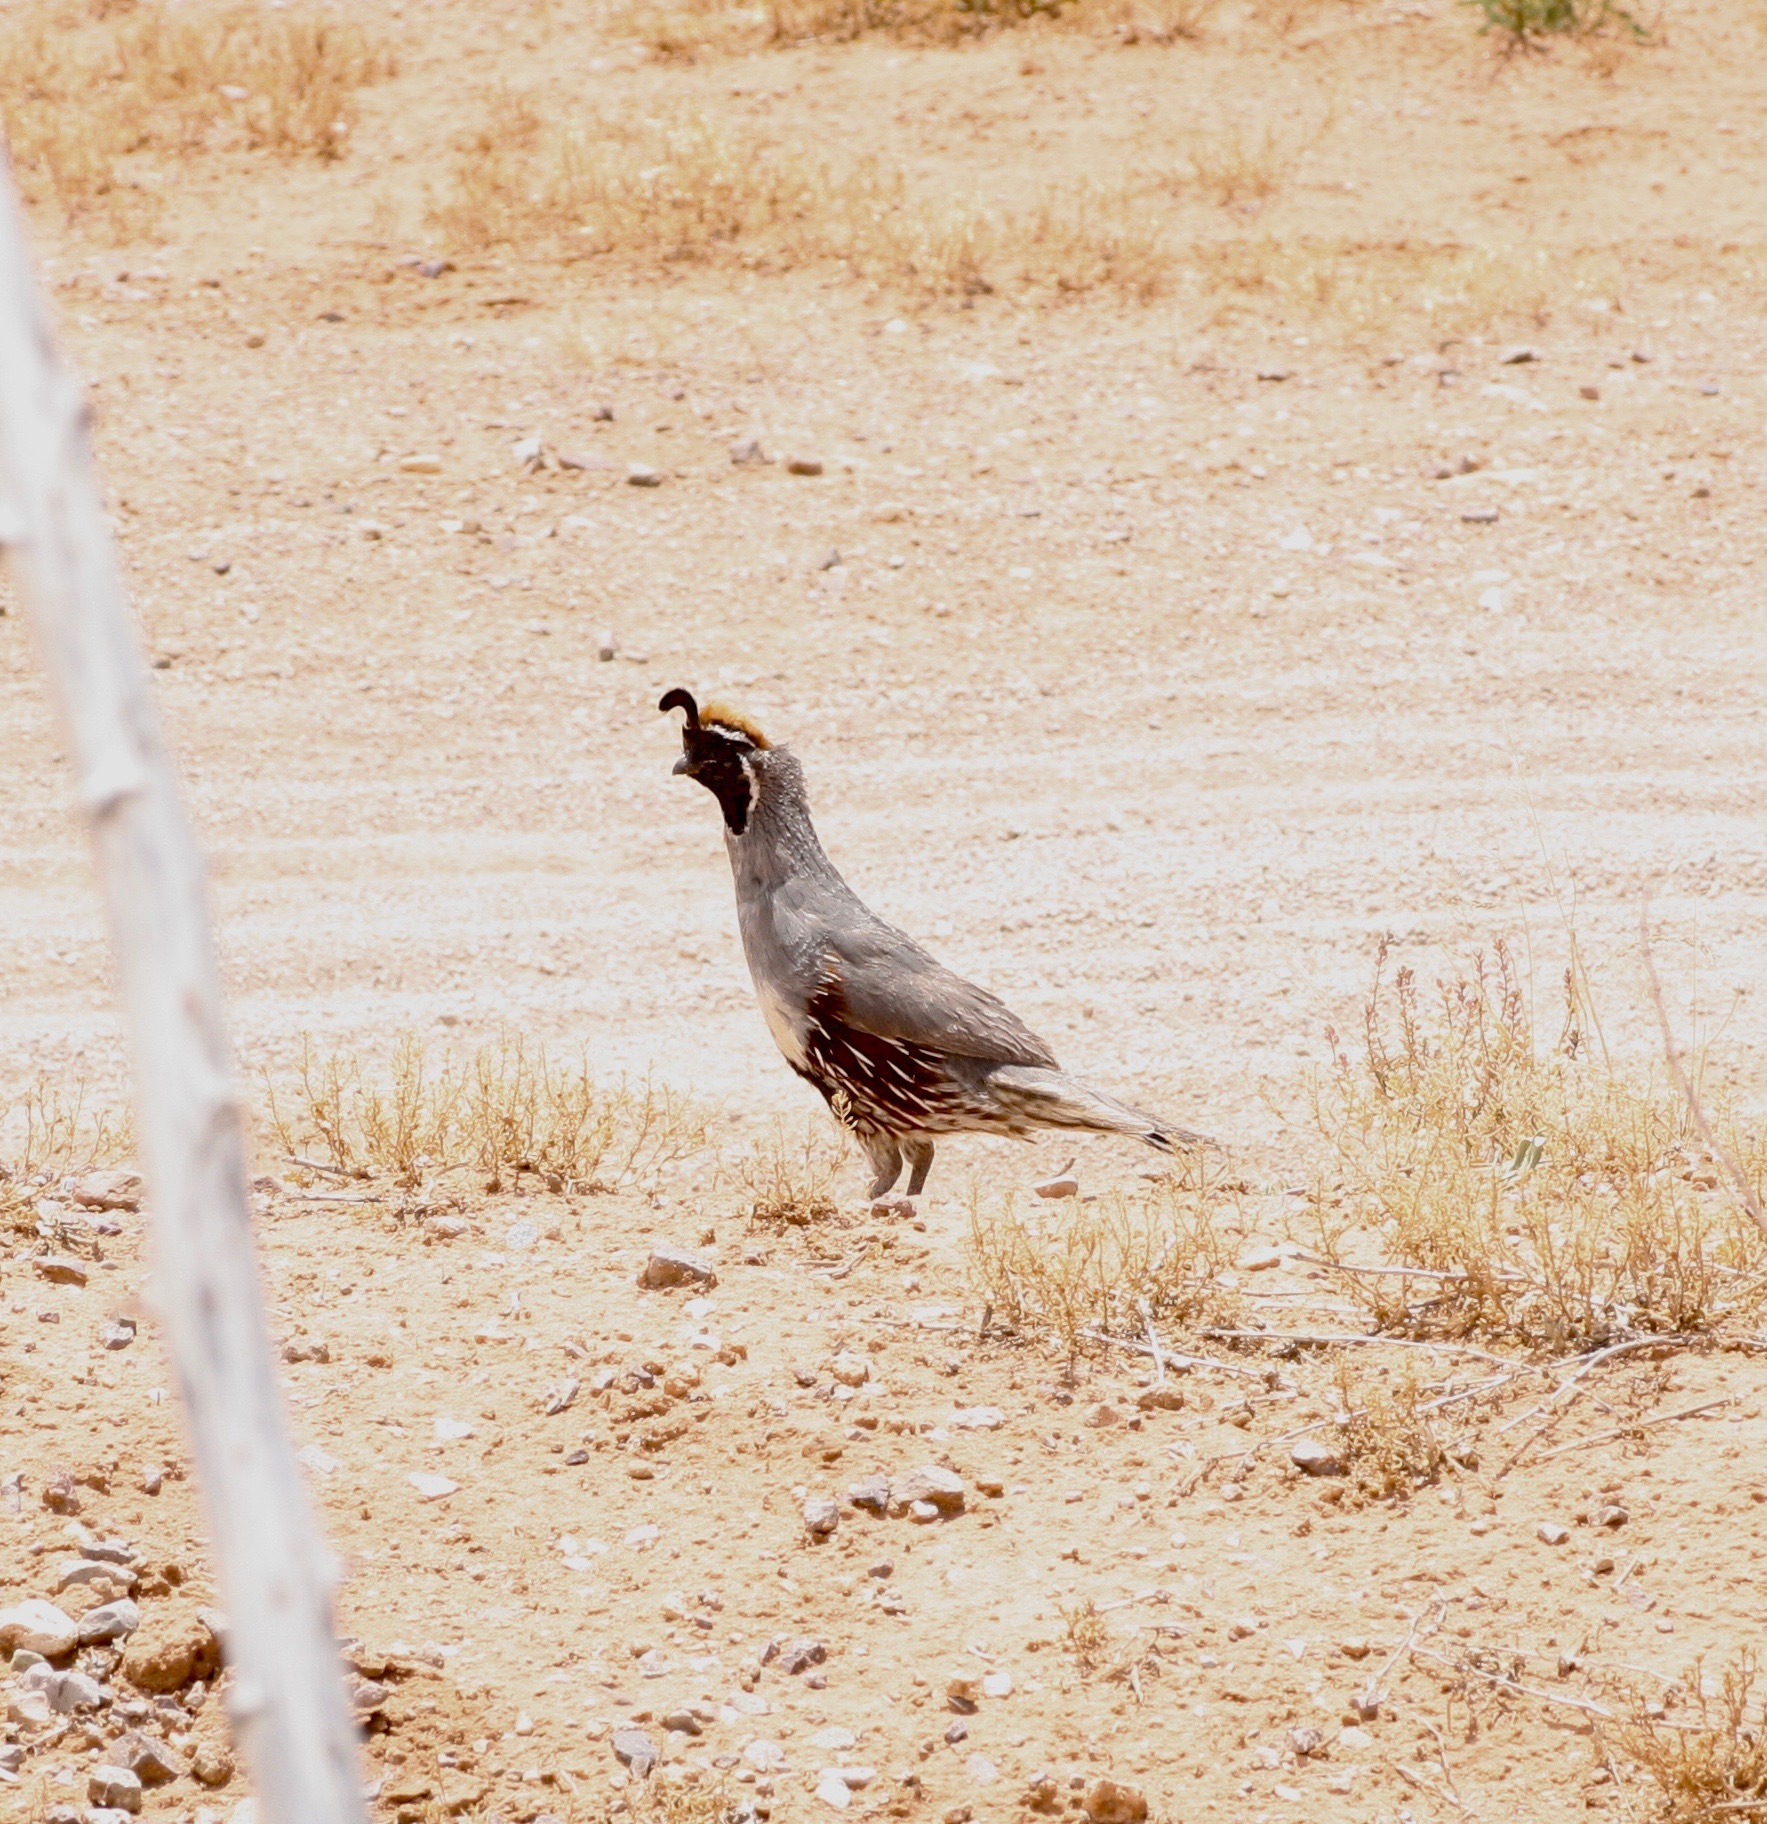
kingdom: Animalia
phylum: Chordata
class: Aves
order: Galliformes
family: Odontophoridae
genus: Callipepla
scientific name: Callipepla gambelii
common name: Gambel's quail
